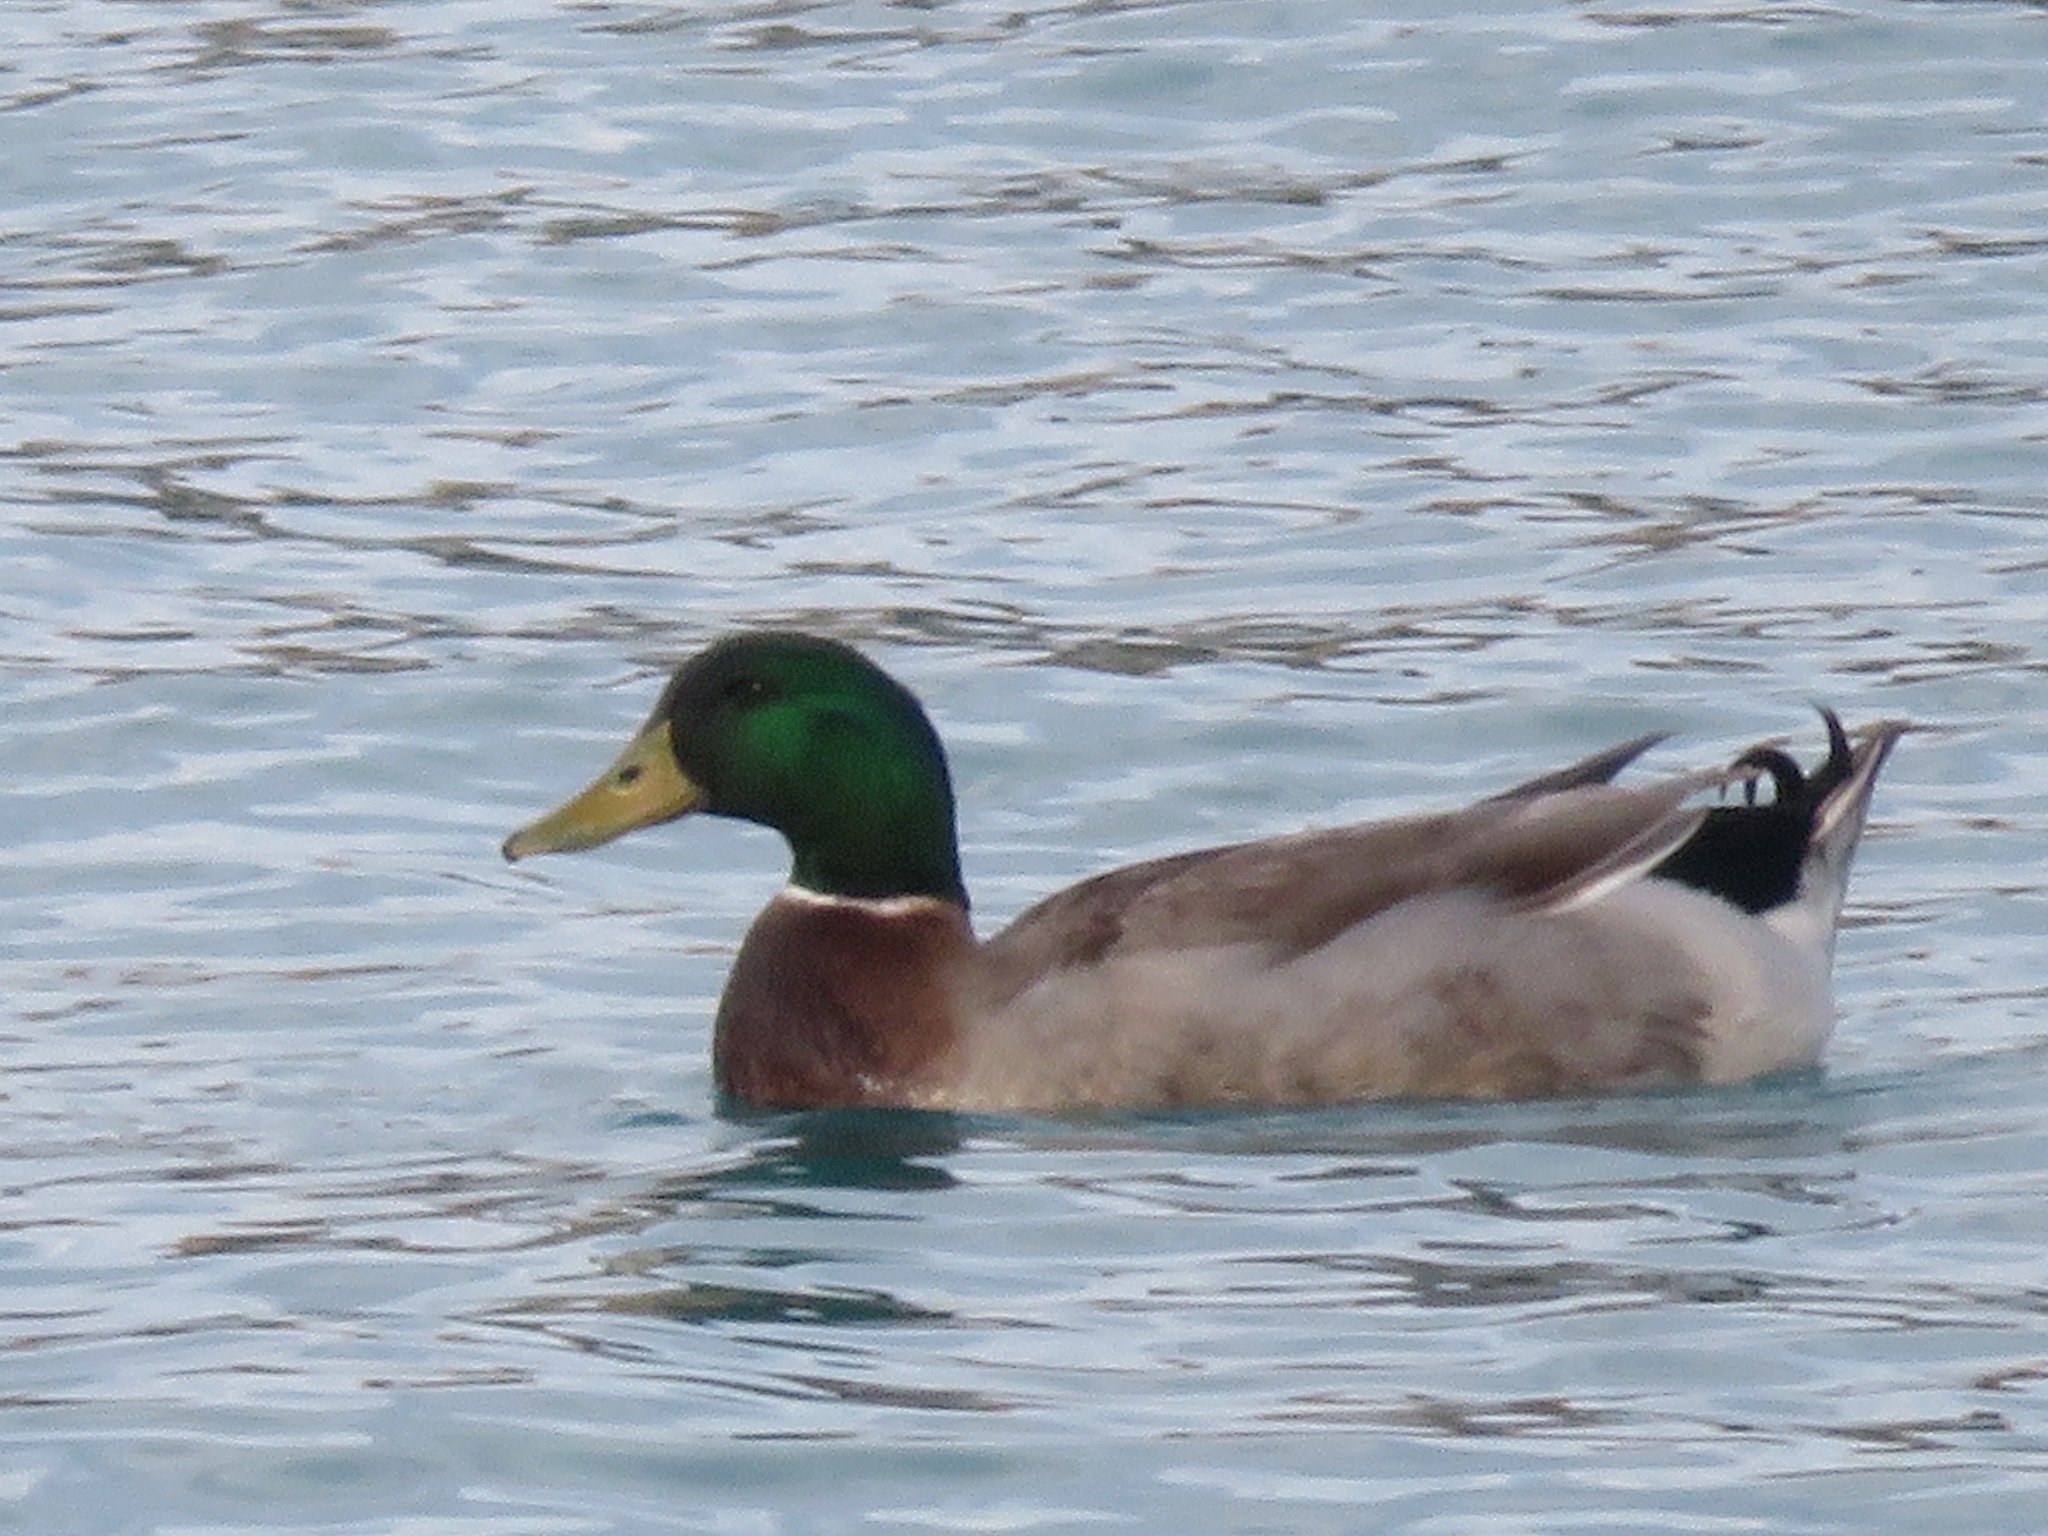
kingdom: Animalia
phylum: Chordata
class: Aves
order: Anseriformes
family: Anatidae
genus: Anas
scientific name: Anas platyrhynchos
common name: Mallard
